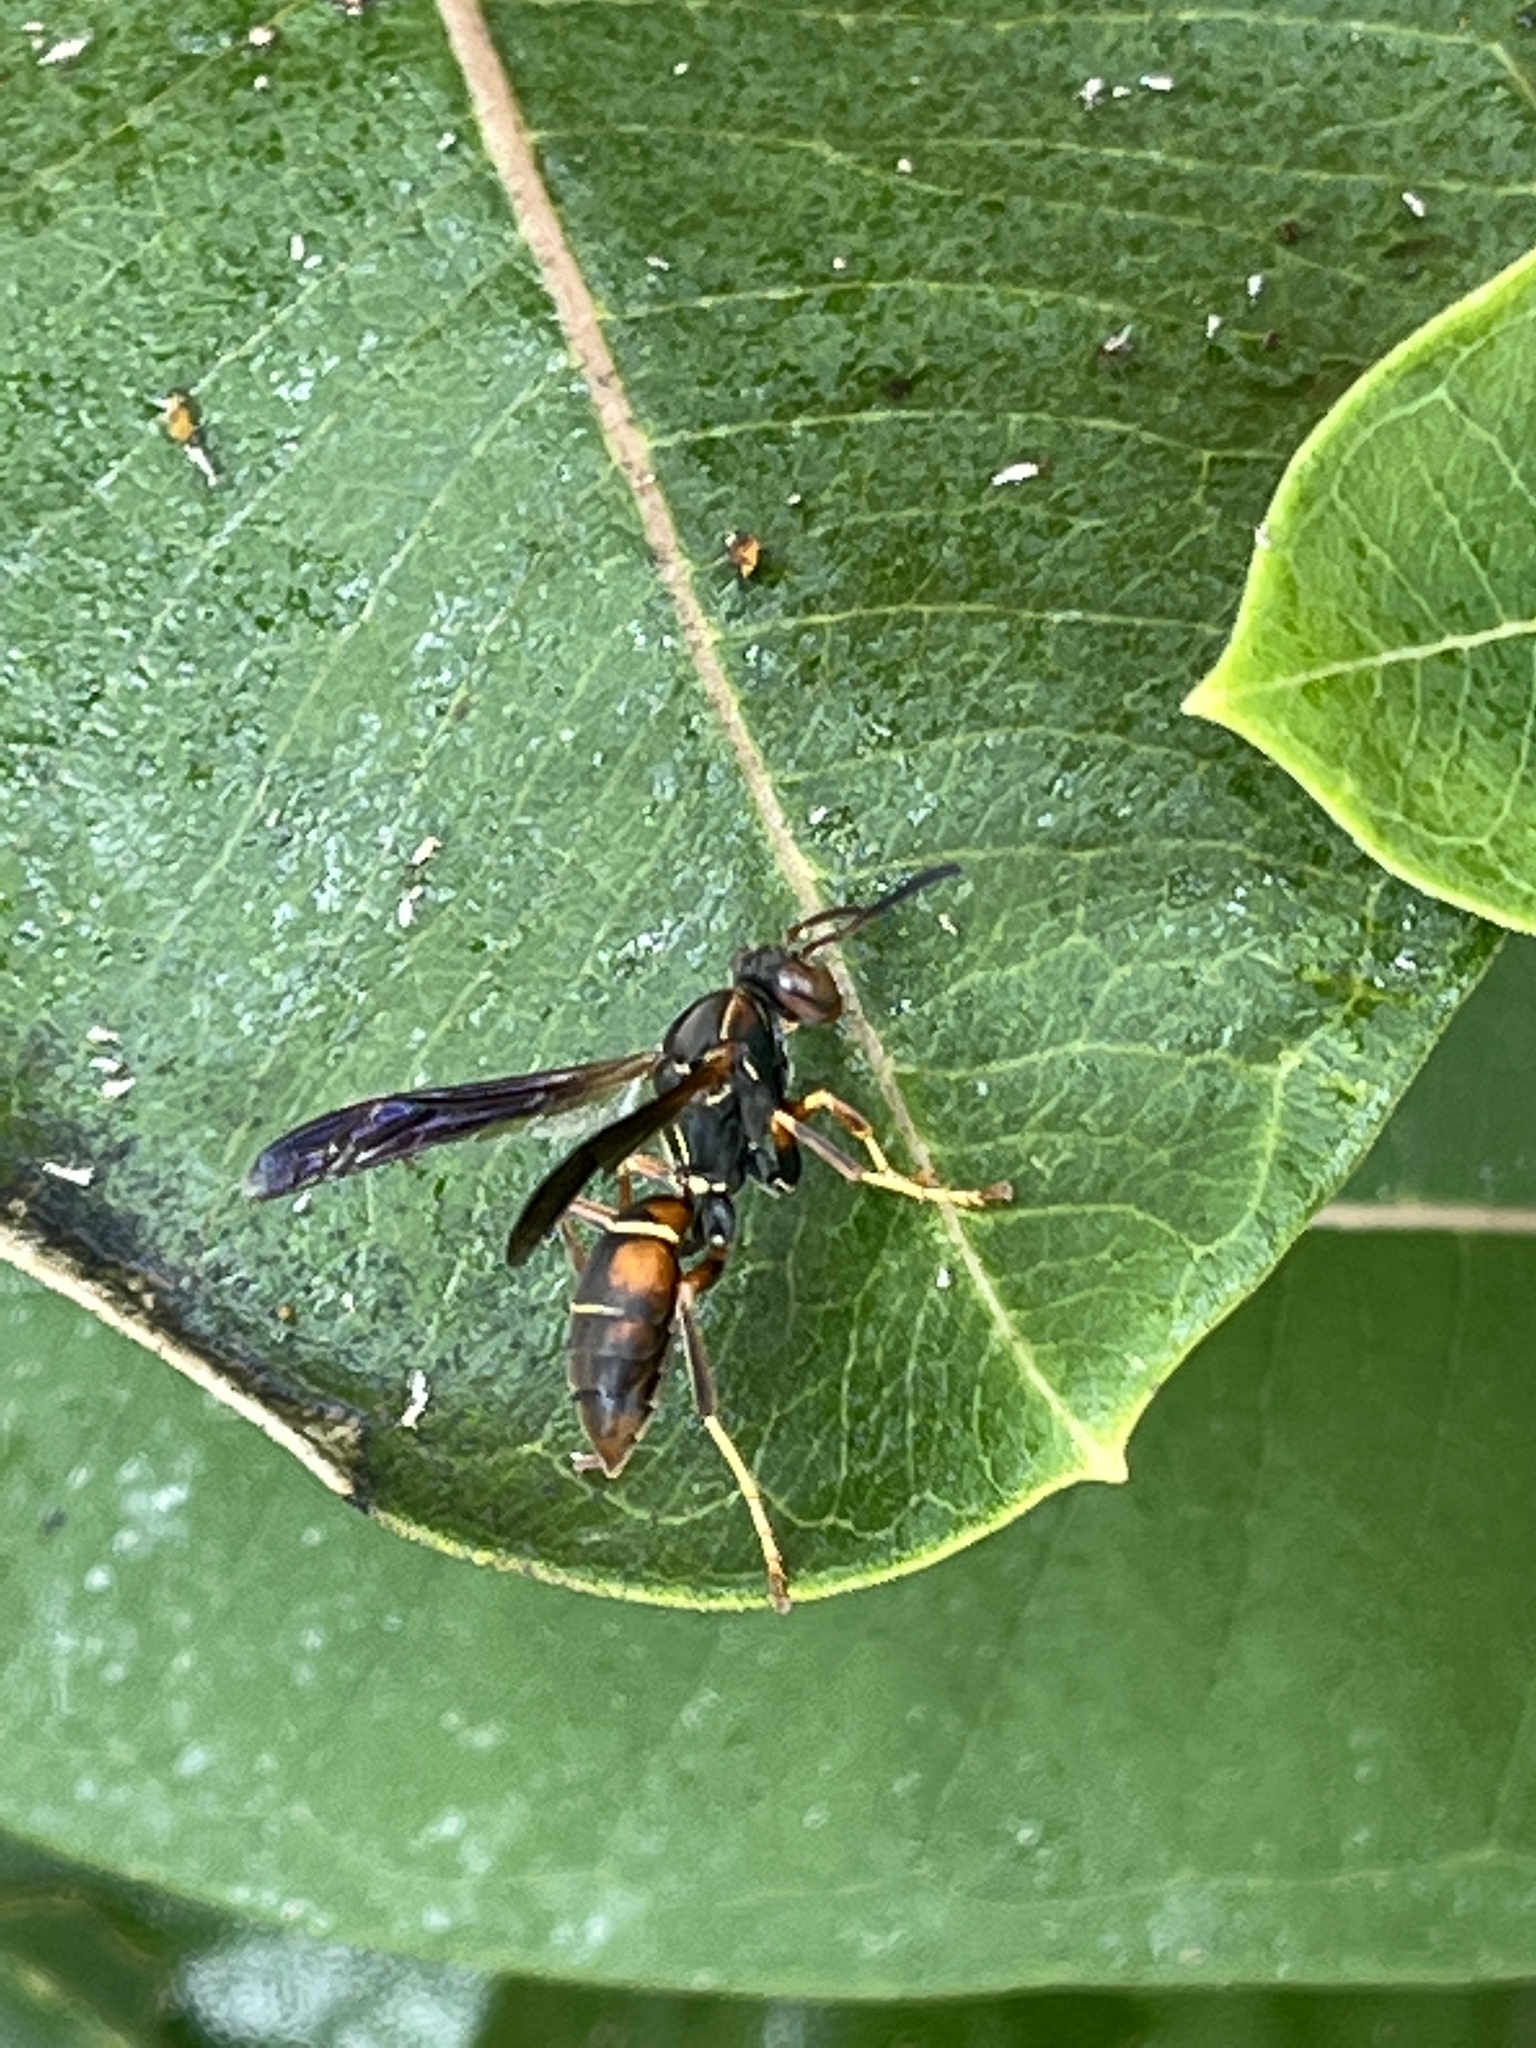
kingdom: Animalia
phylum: Arthropoda
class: Insecta
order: Hymenoptera
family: Eumenidae
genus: Polistes
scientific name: Polistes fuscatus
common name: Dark paper wasp
